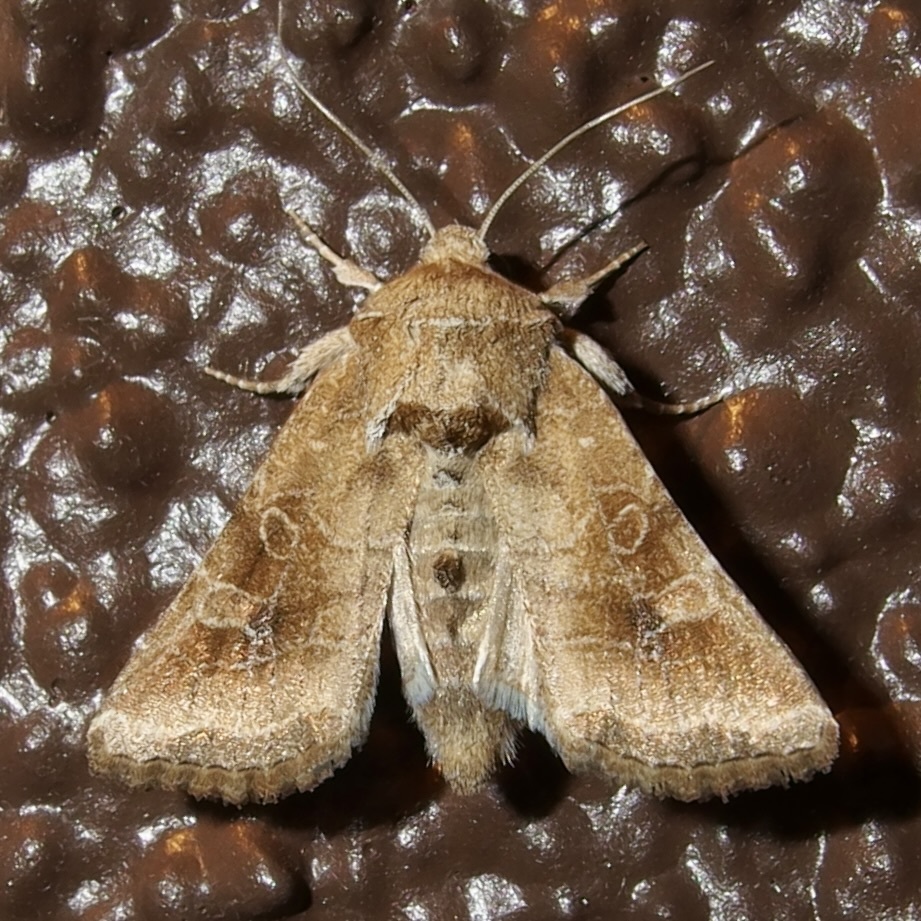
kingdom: Animalia
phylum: Arthropoda
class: Insecta
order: Lepidoptera
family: Noctuidae
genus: Lacinipolia
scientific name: Lacinipolia triplehorni
